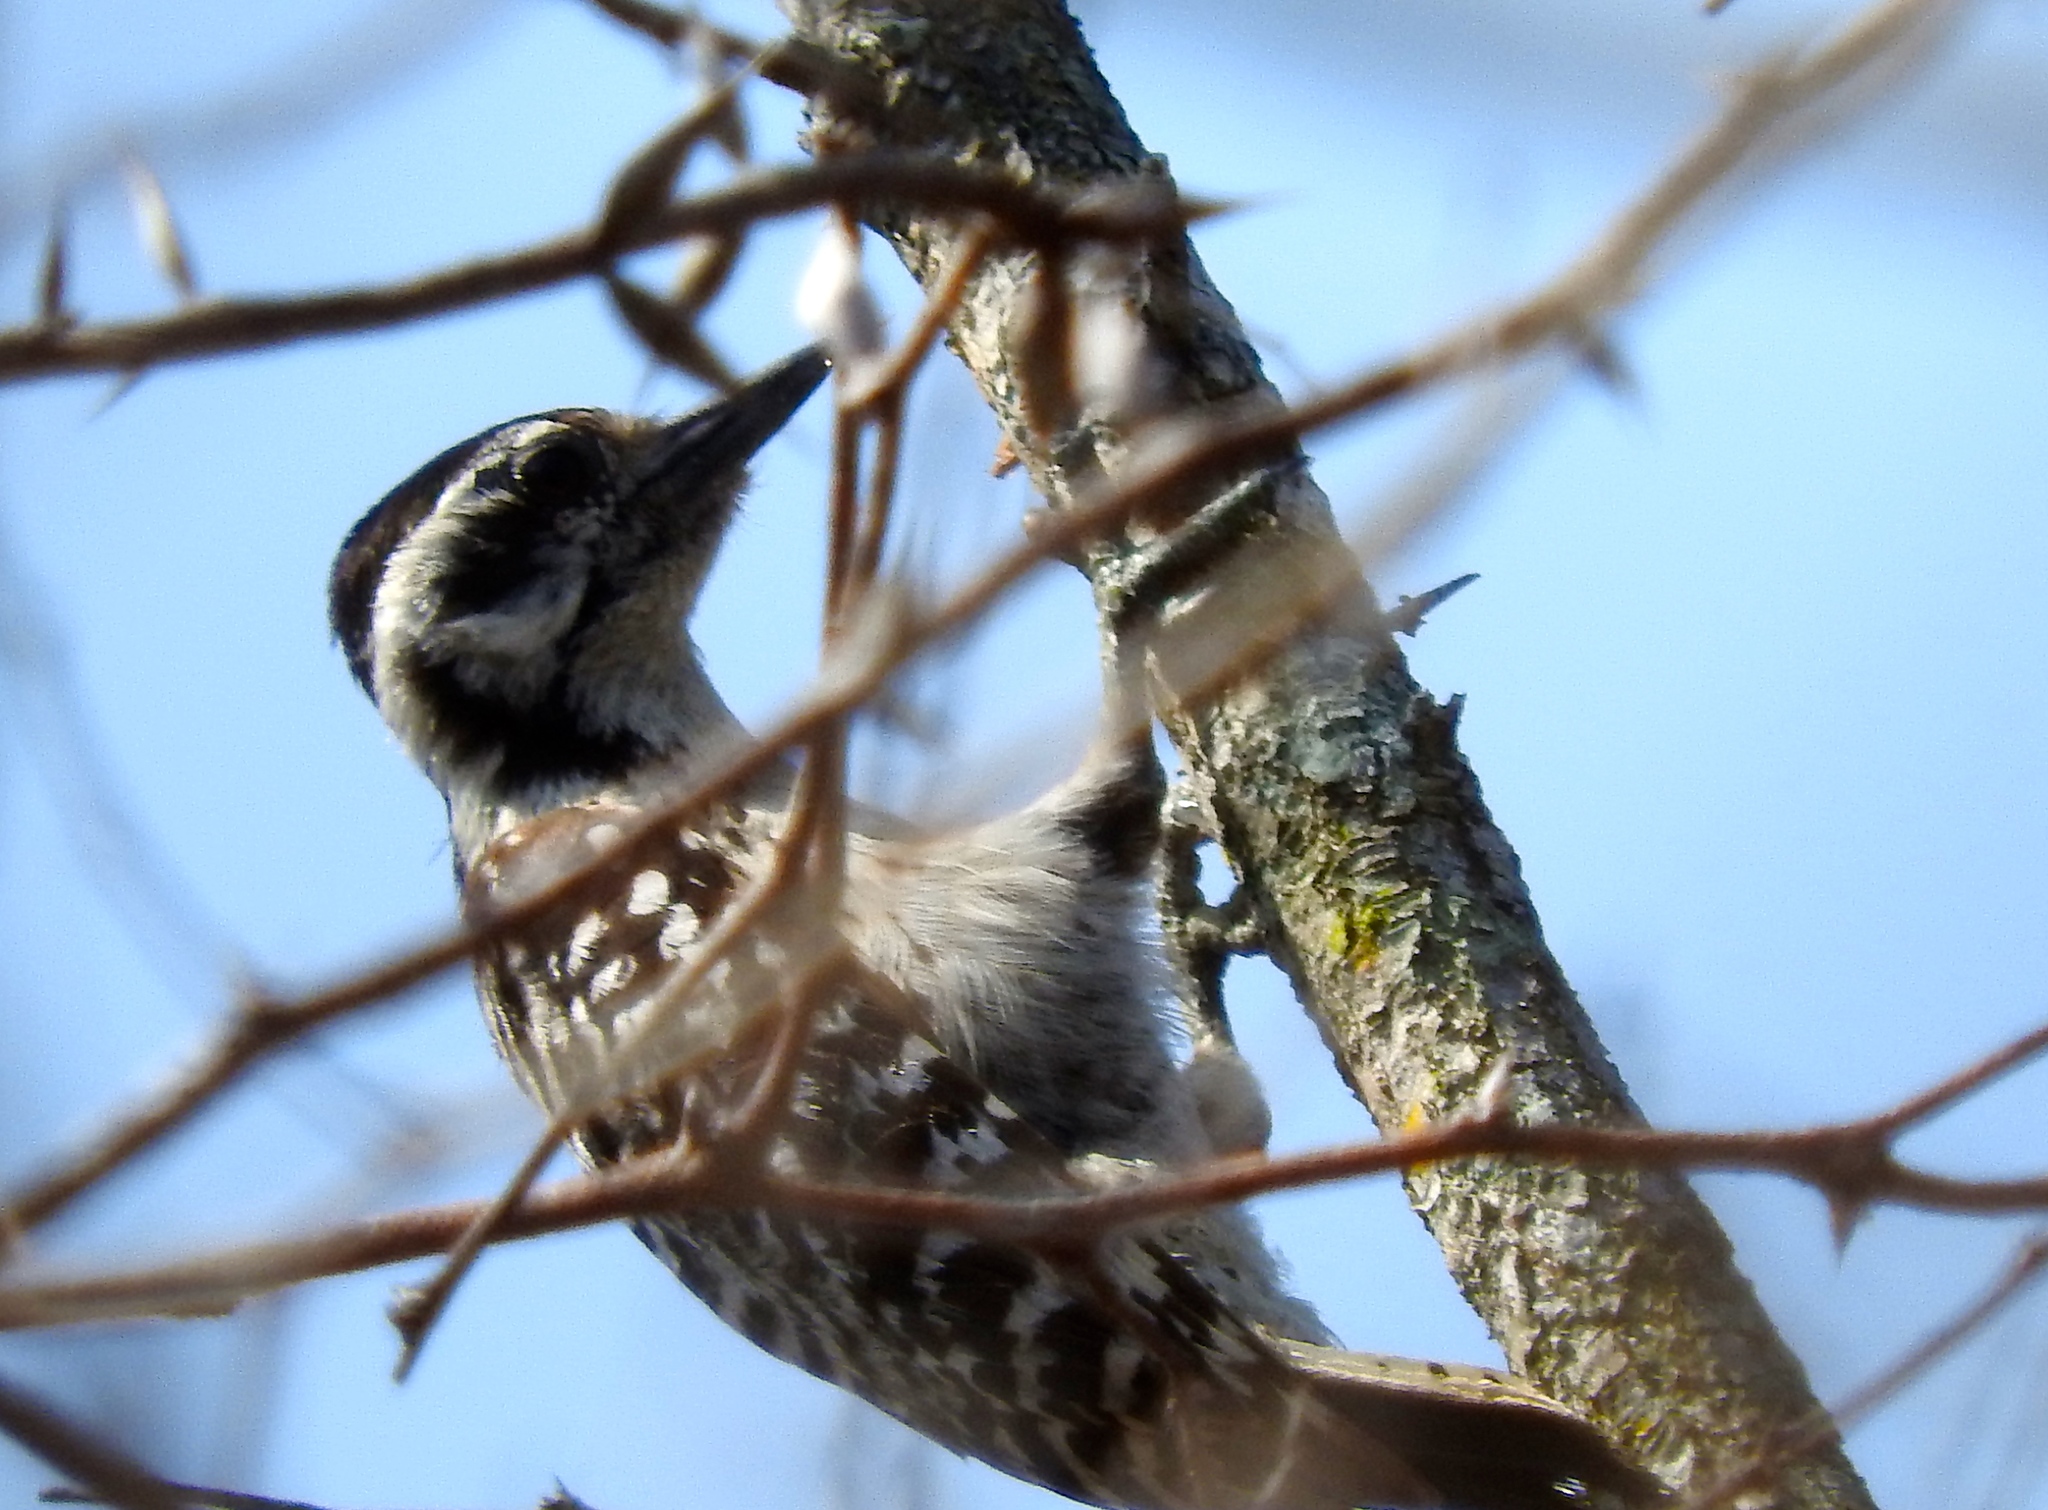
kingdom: Animalia
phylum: Chordata
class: Aves
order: Piciformes
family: Picidae
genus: Dryobates
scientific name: Dryobates scalaris
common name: Ladder-backed woodpecker
